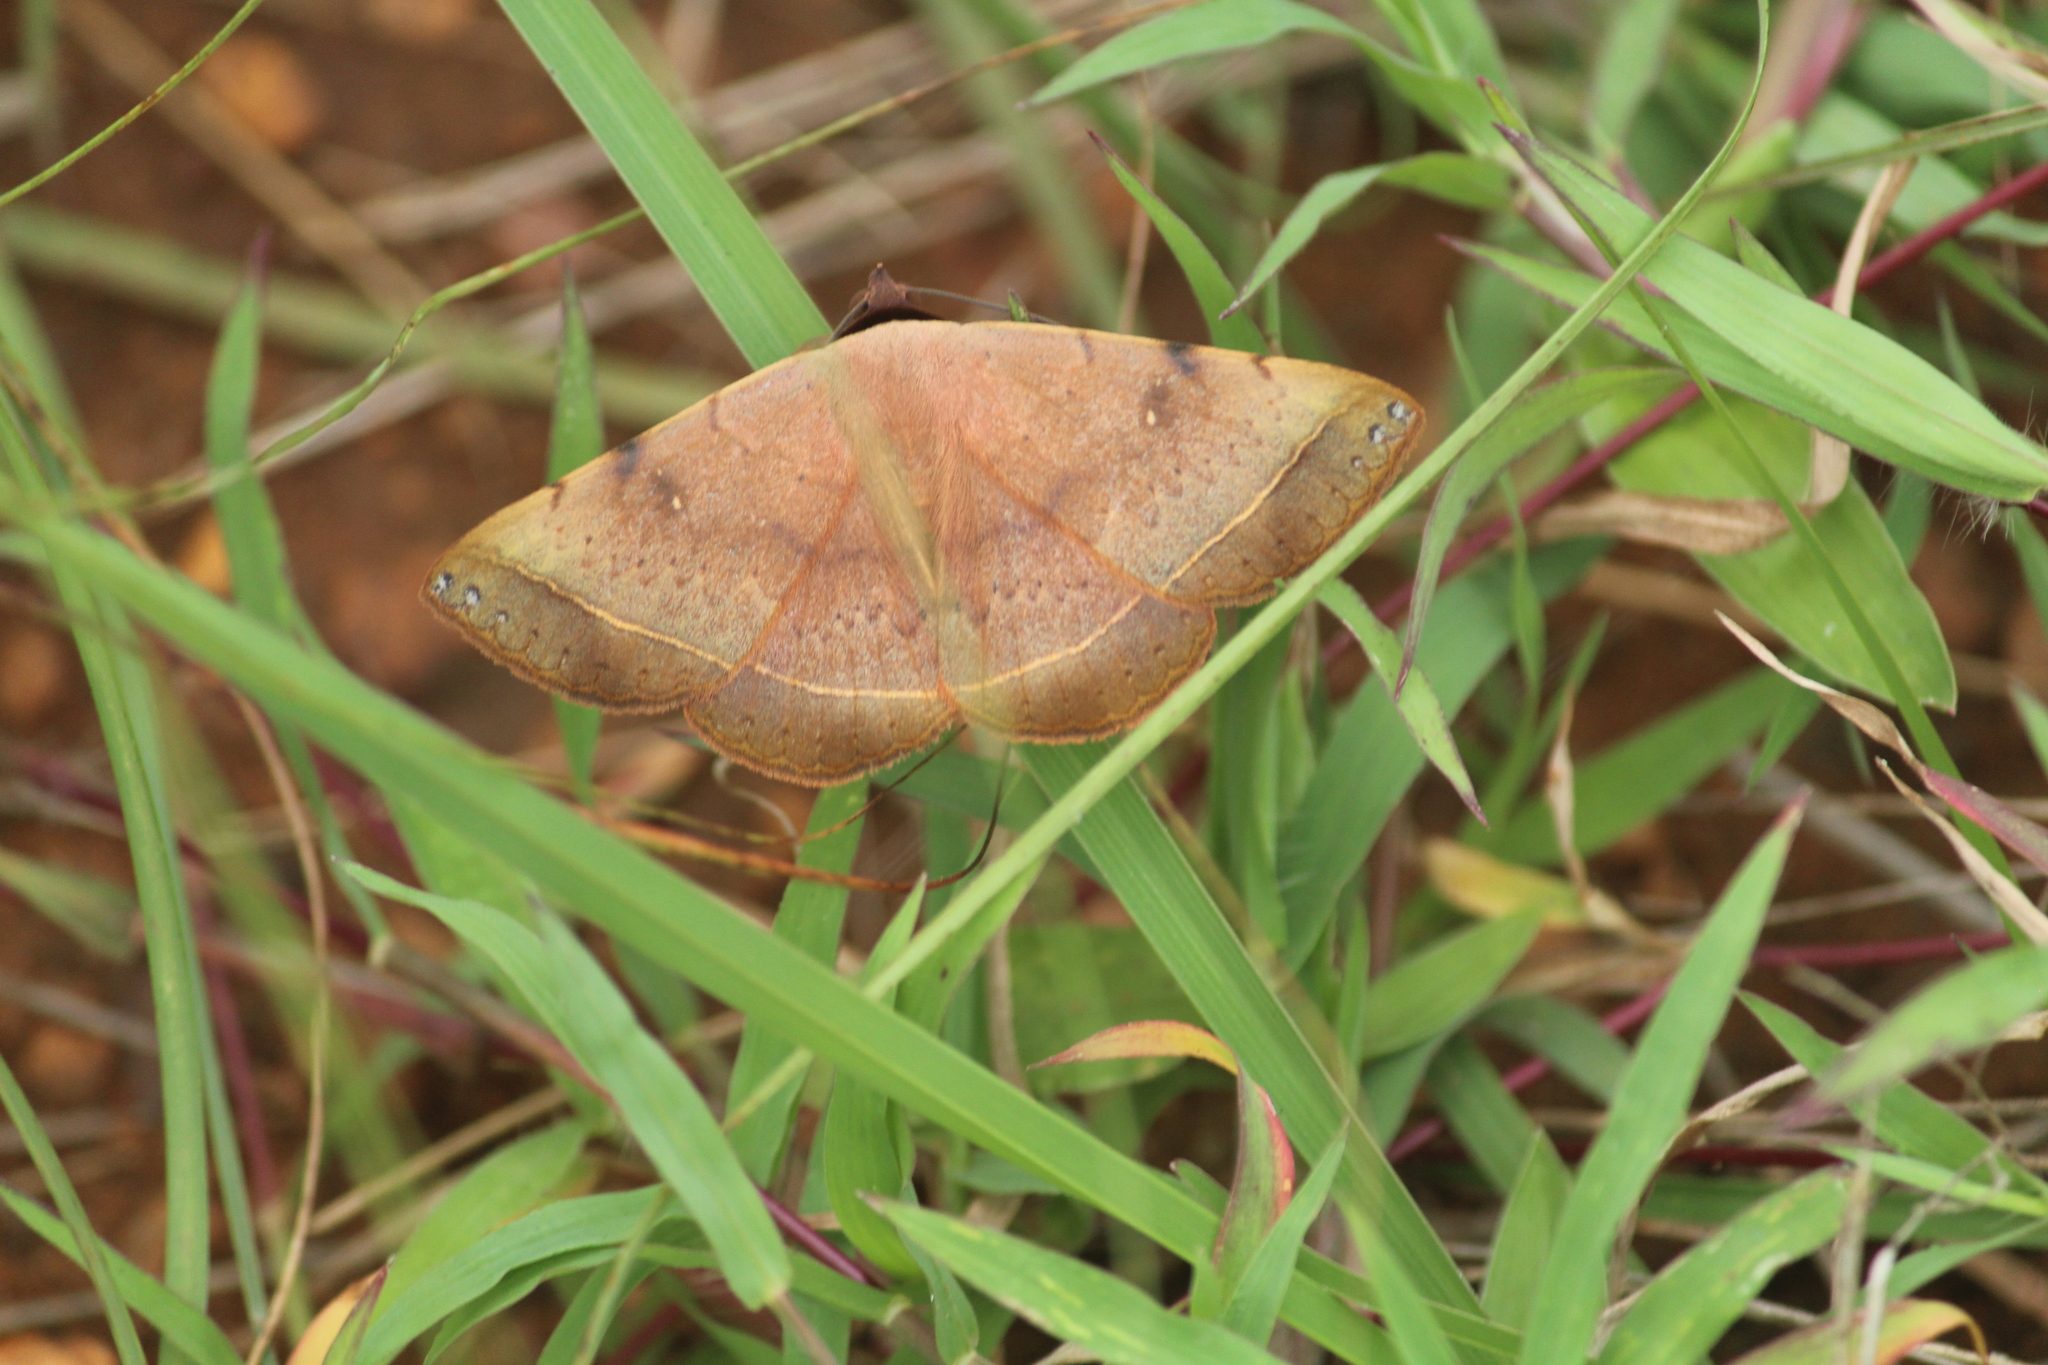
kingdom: Animalia
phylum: Arthropoda
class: Insecta
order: Lepidoptera
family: Erebidae
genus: Hypopyra
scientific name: Hypopyra meridionalis
